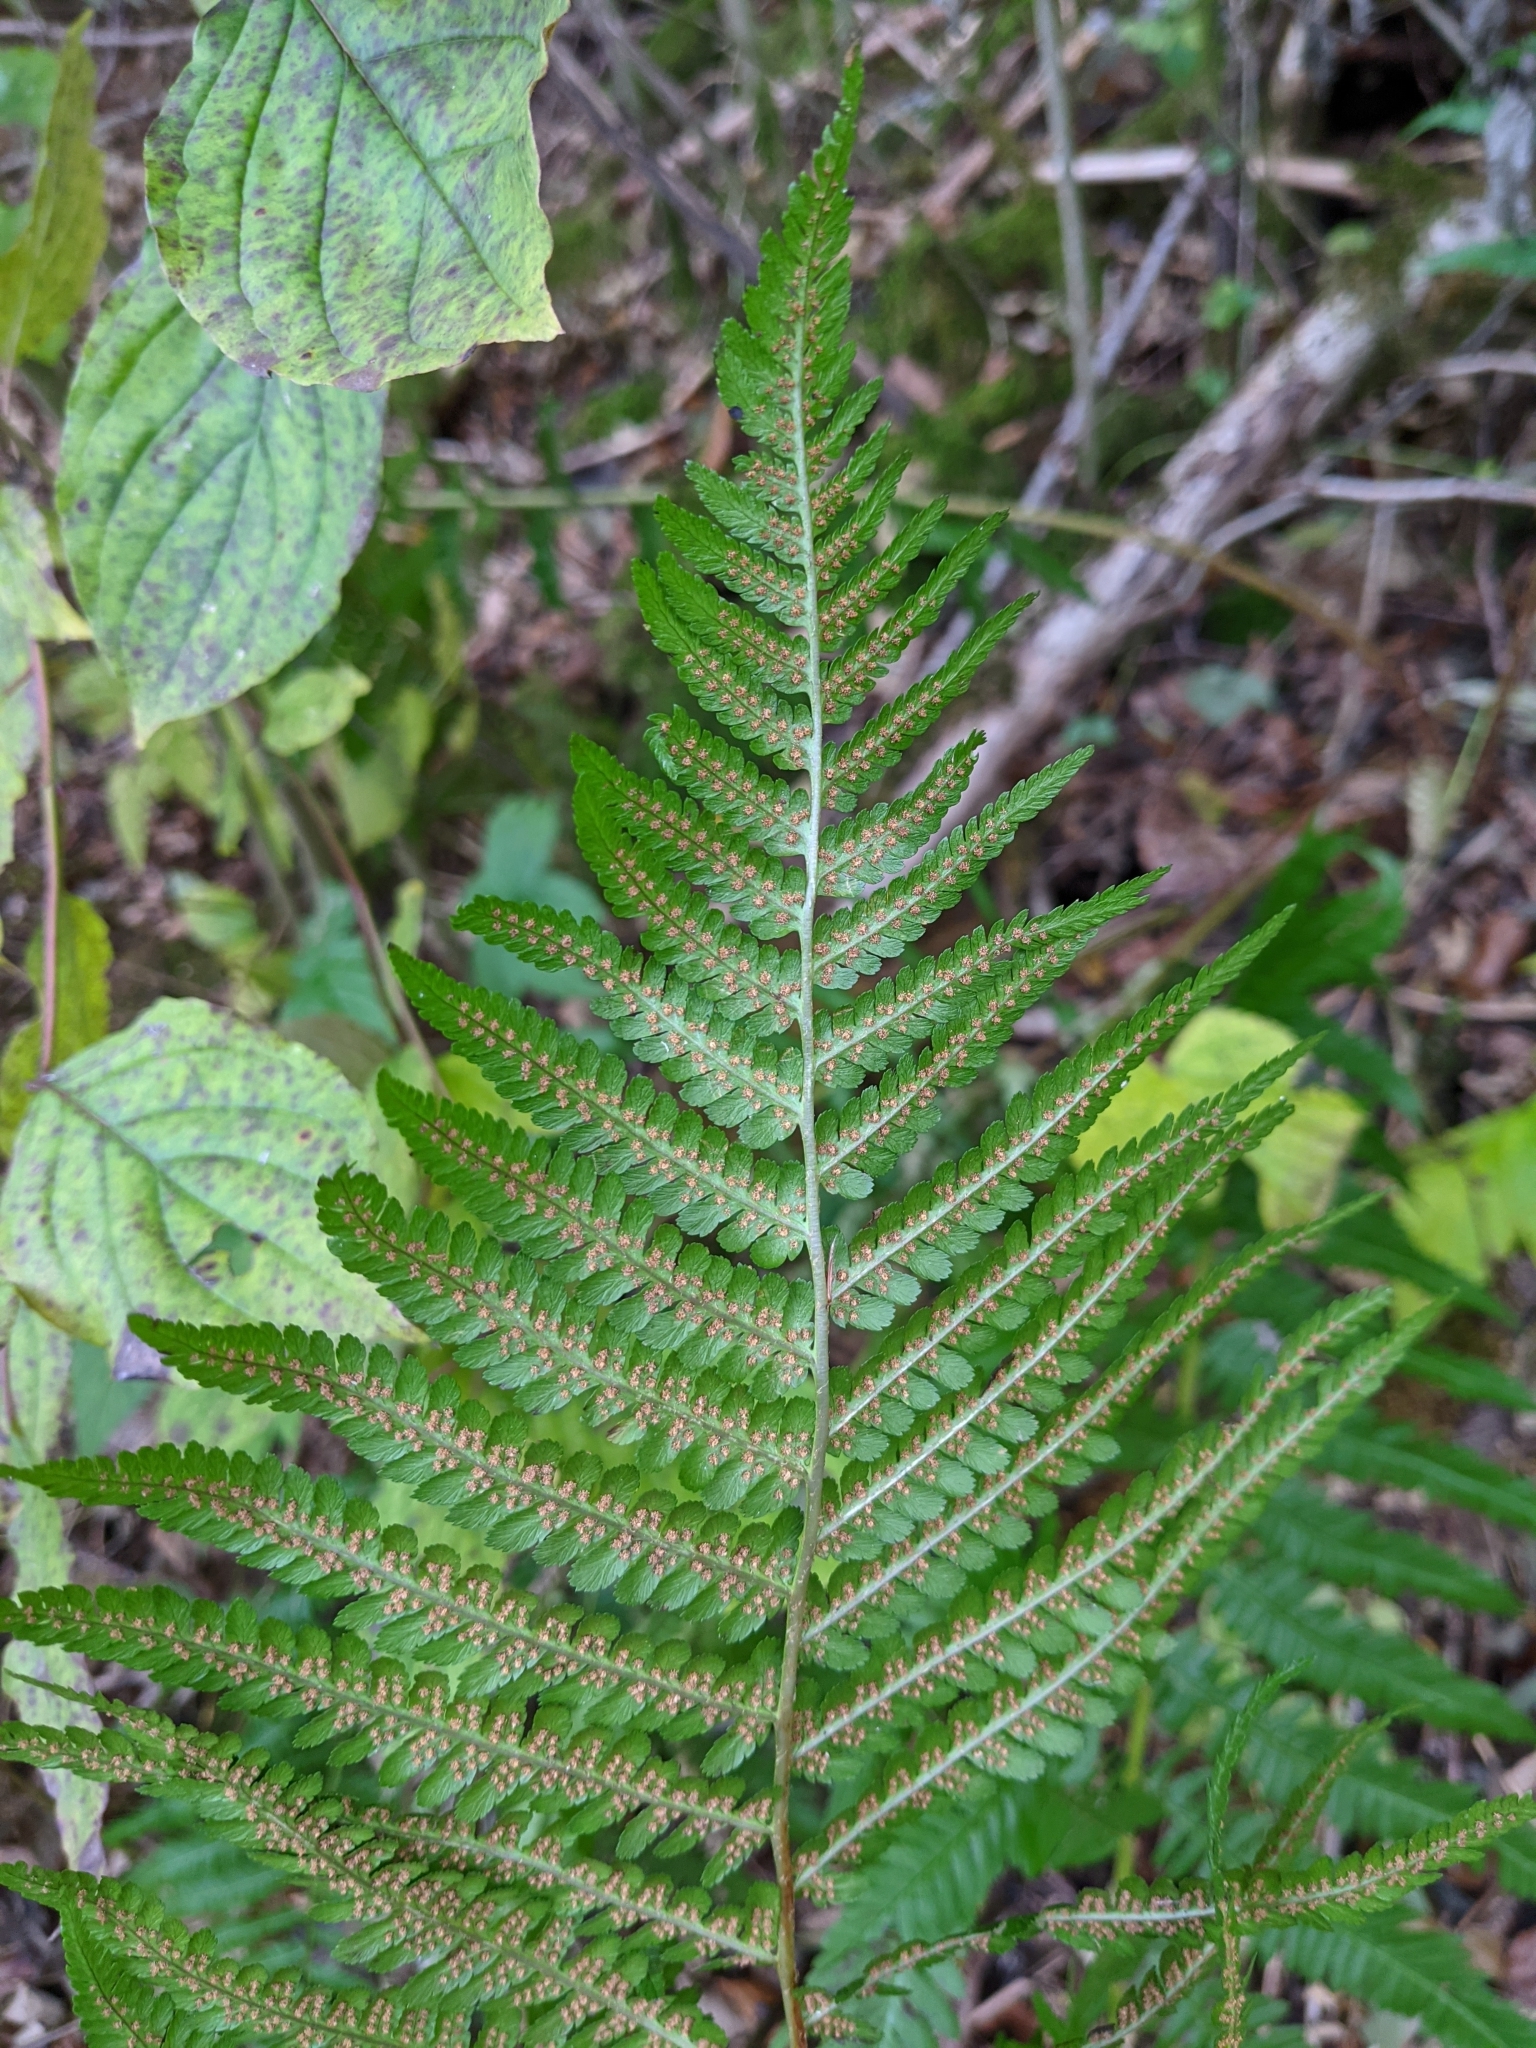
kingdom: Plantae
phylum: Tracheophyta
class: Polypodiopsida
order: Polypodiales
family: Dryopteridaceae
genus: Dryopteris
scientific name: Dryopteris filix-mas
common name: Male fern
